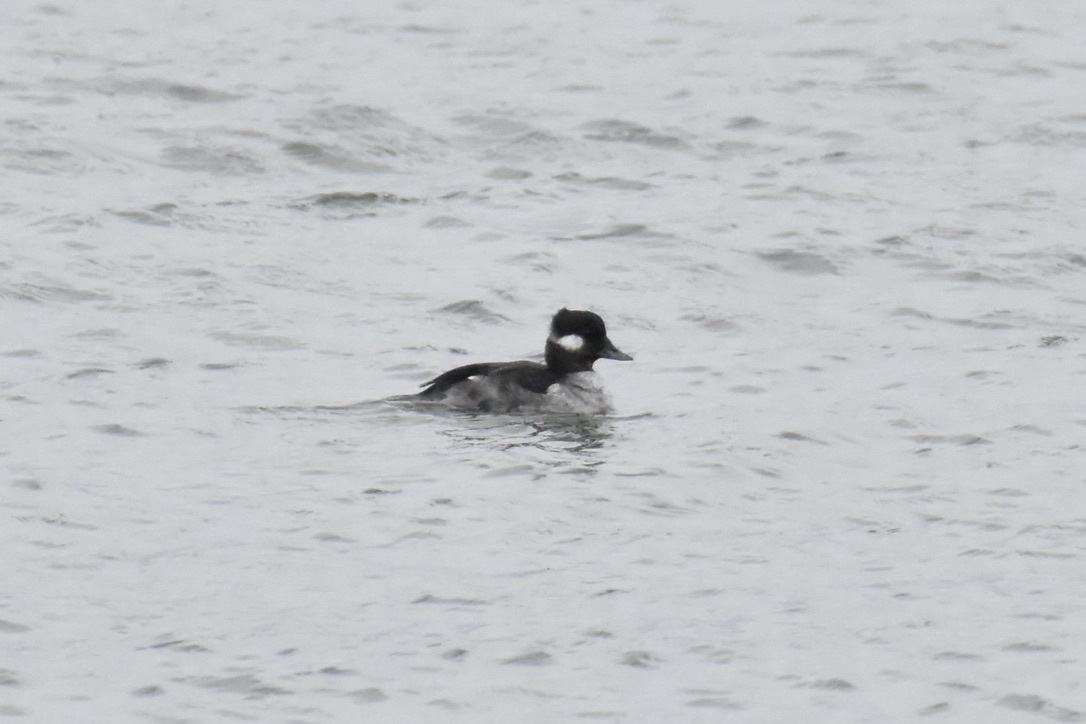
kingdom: Animalia
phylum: Chordata
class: Aves
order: Anseriformes
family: Anatidae
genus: Bucephala
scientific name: Bucephala albeola
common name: Bufflehead
